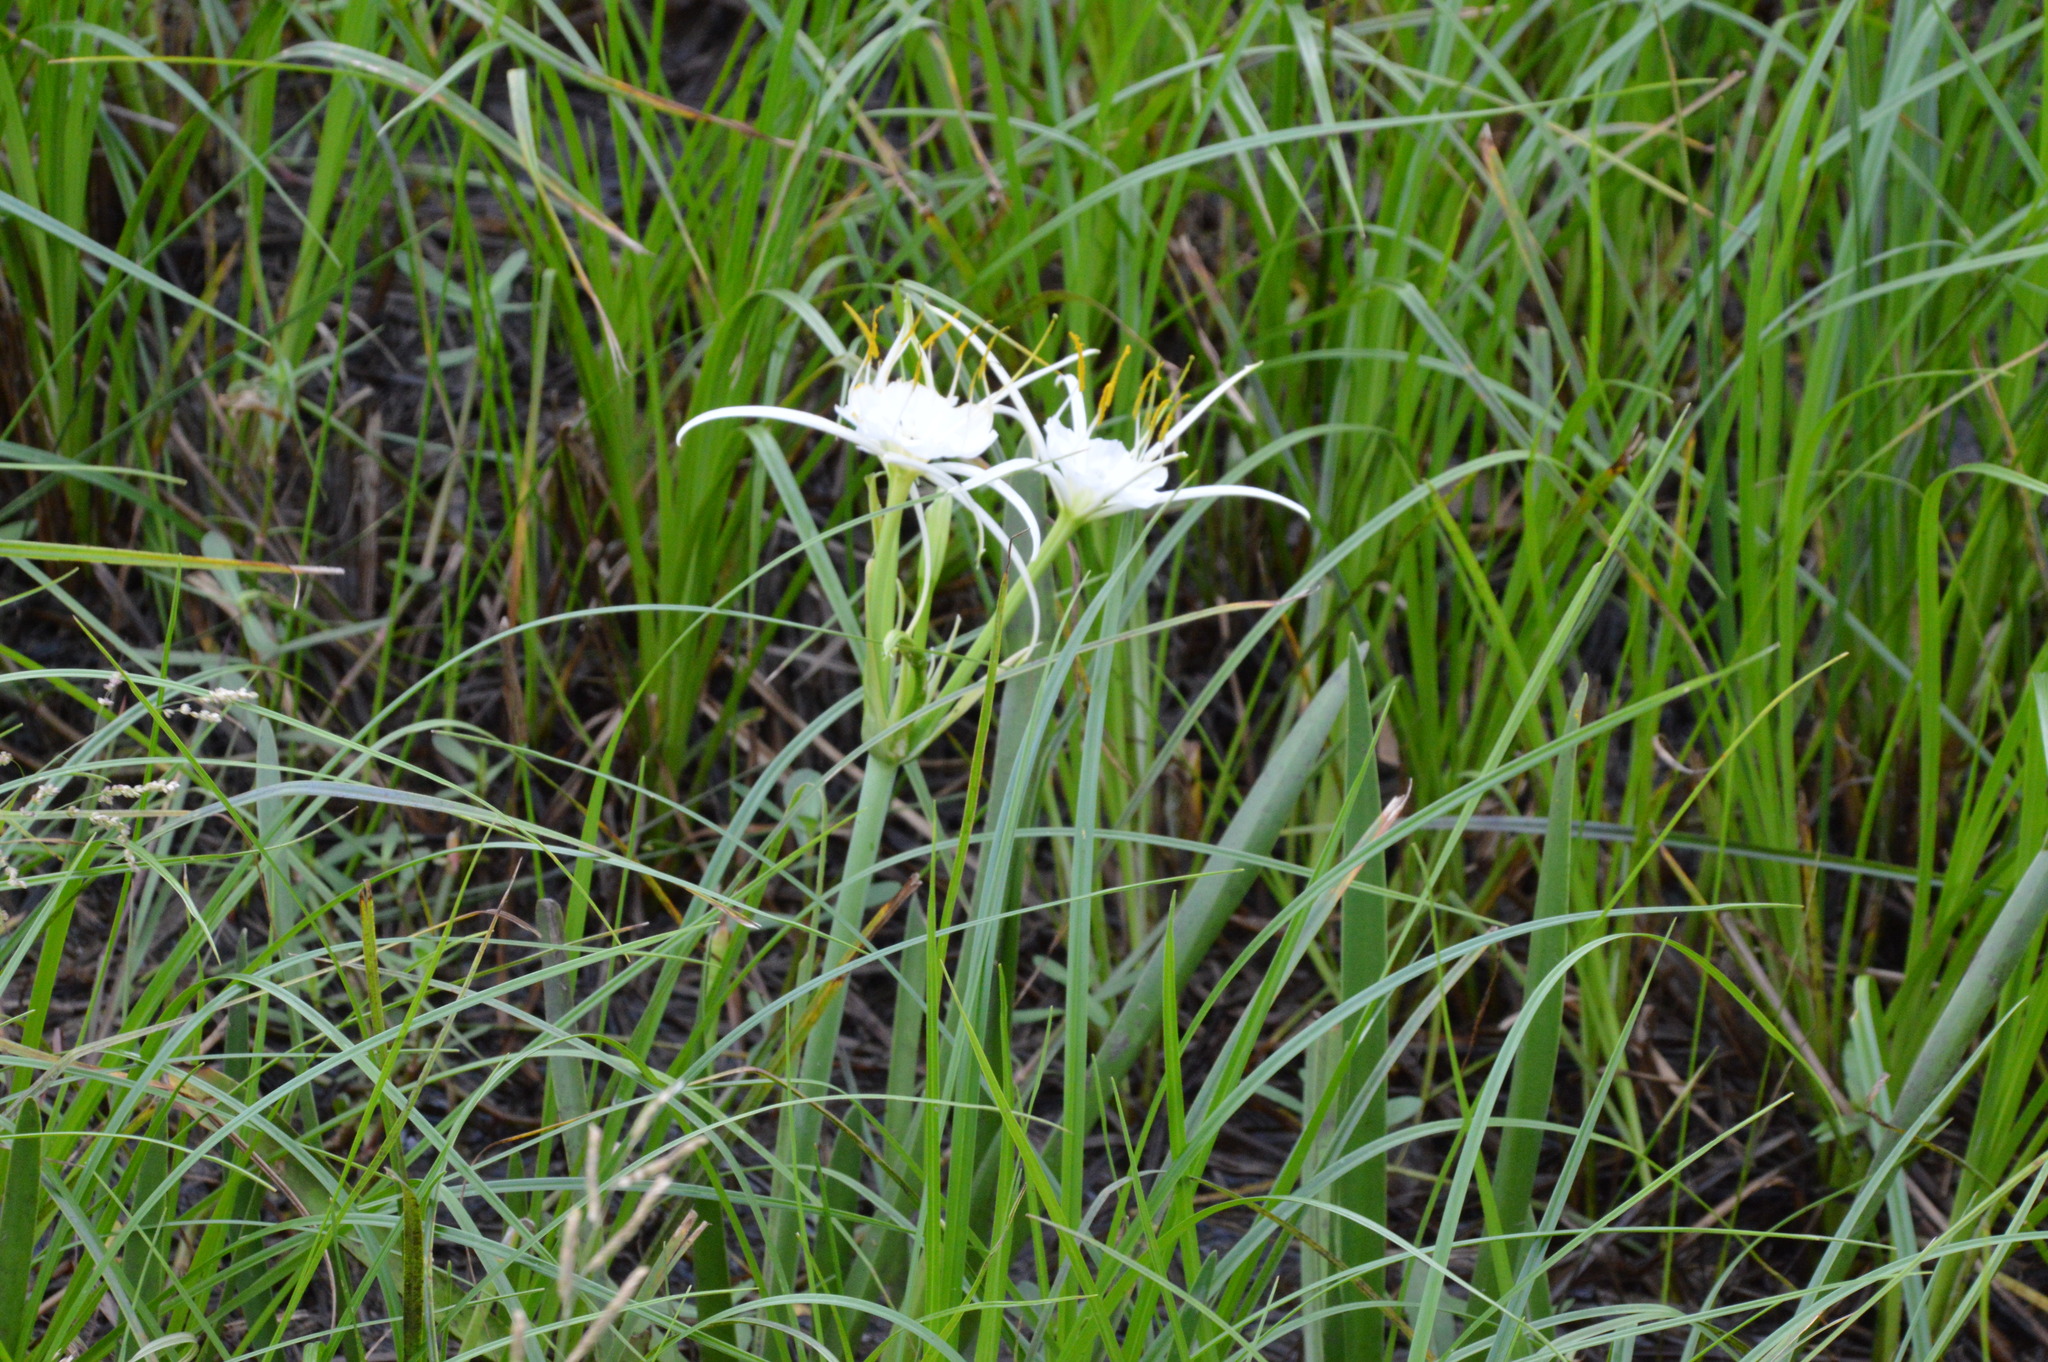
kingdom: Plantae
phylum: Tracheophyta
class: Liliopsida
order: Asparagales
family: Amaryllidaceae
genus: Hymenocallis
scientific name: Hymenocallis liriosme
